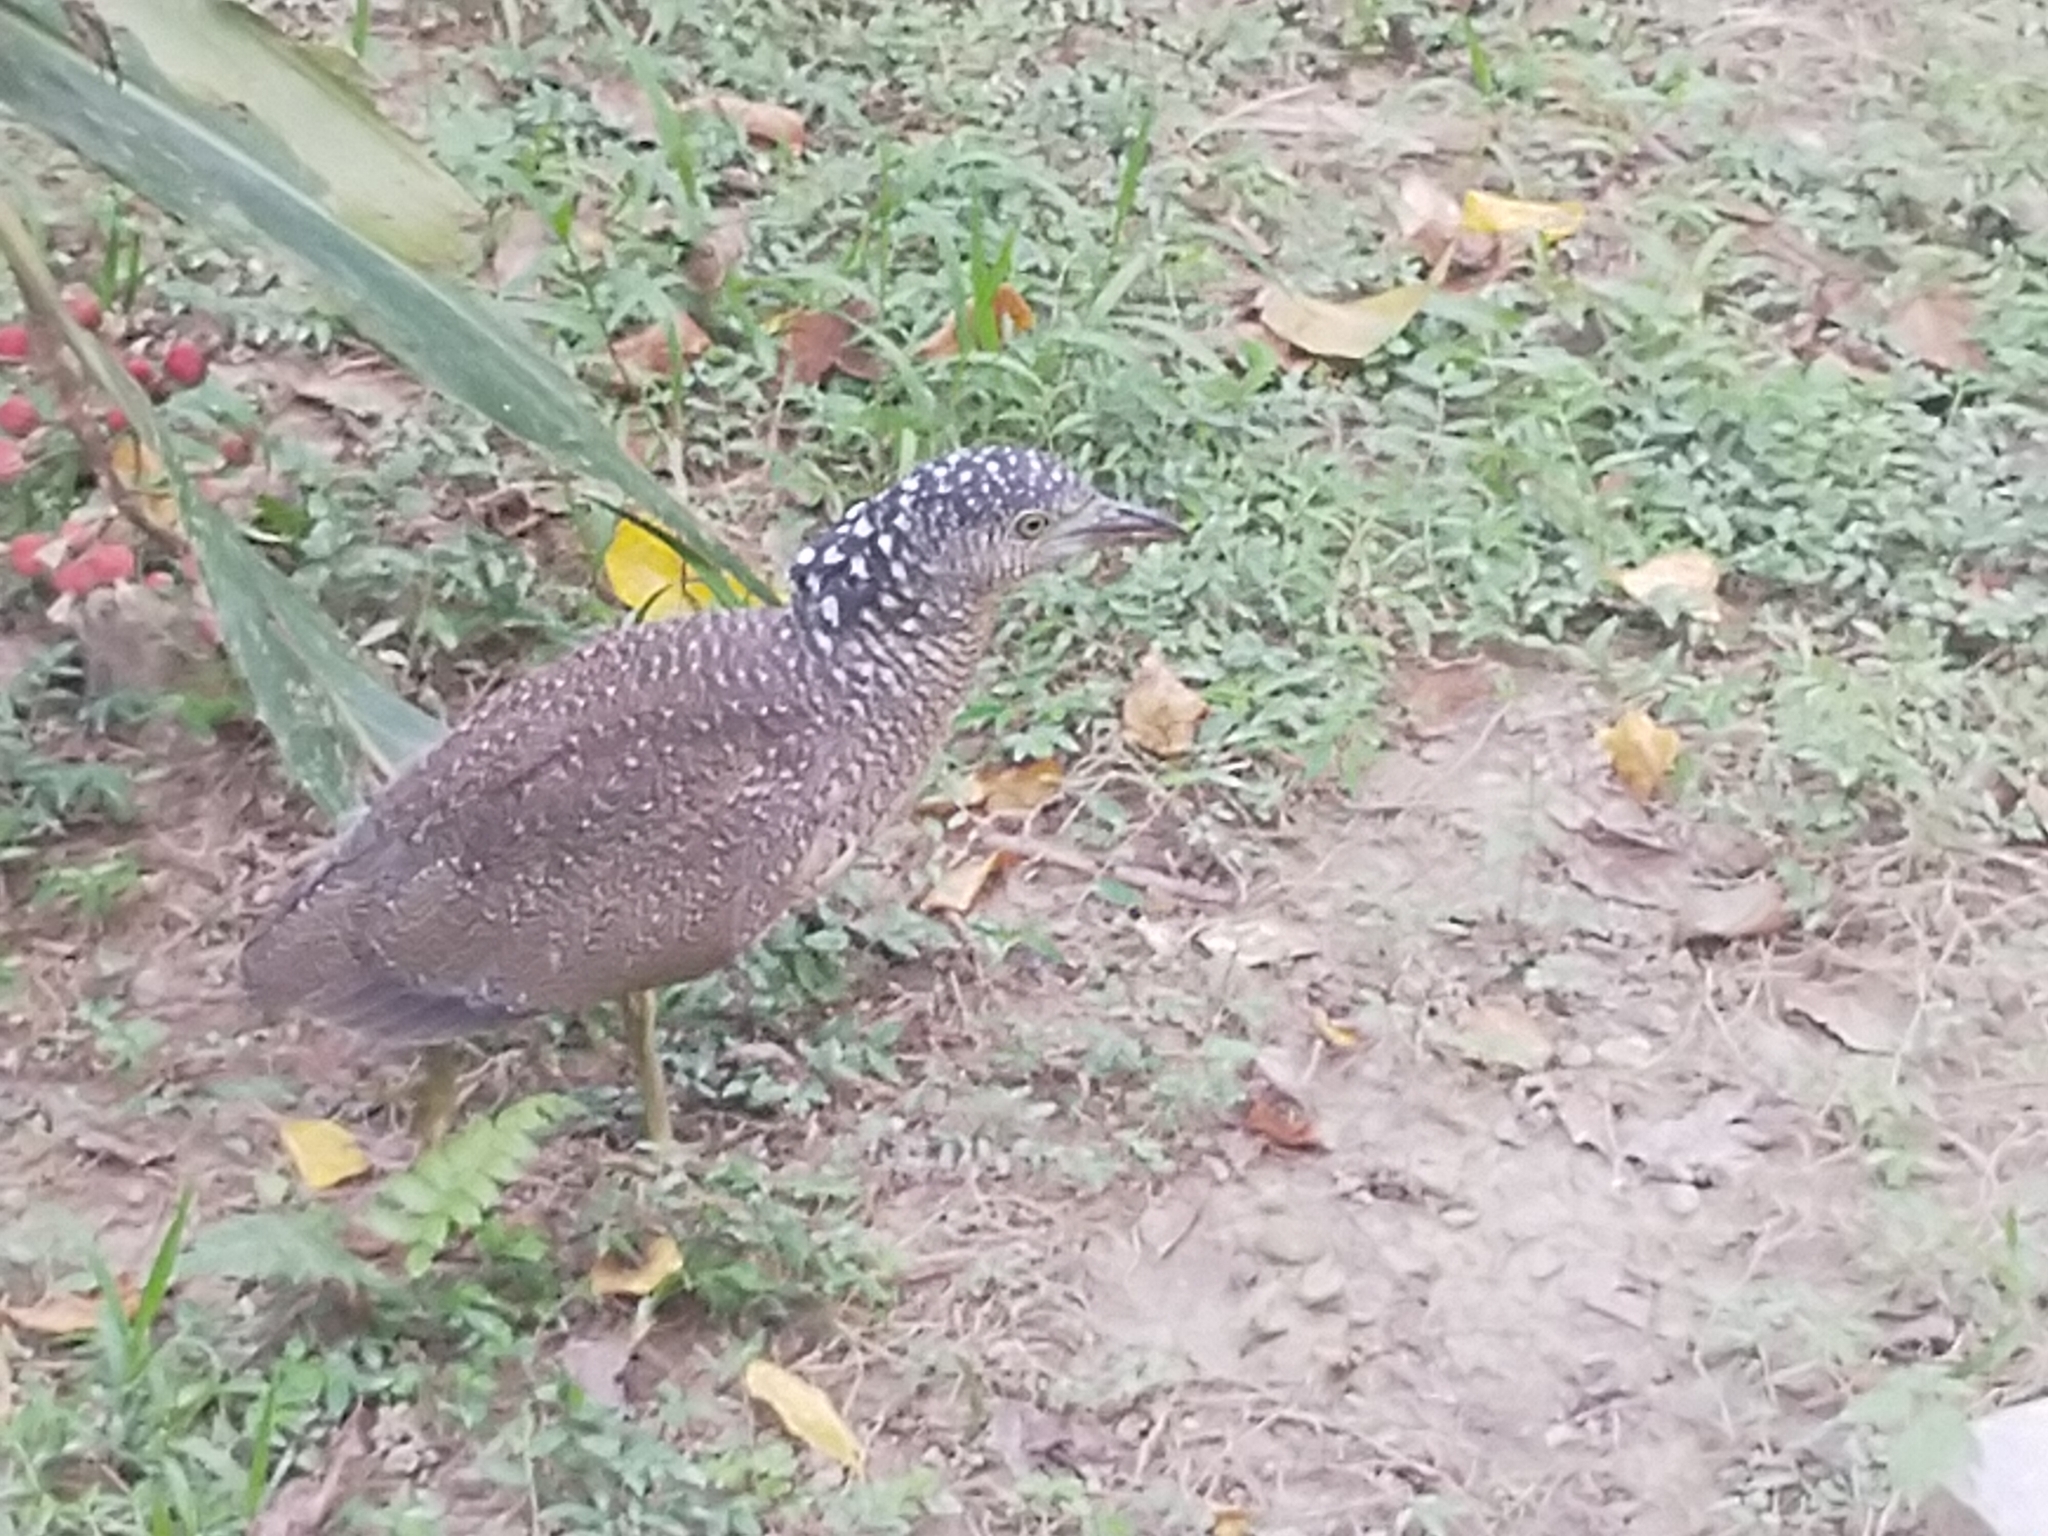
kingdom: Animalia
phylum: Chordata
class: Aves
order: Pelecaniformes
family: Ardeidae
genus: Gorsachius
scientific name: Gorsachius melanolophus
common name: Malayan night heron
